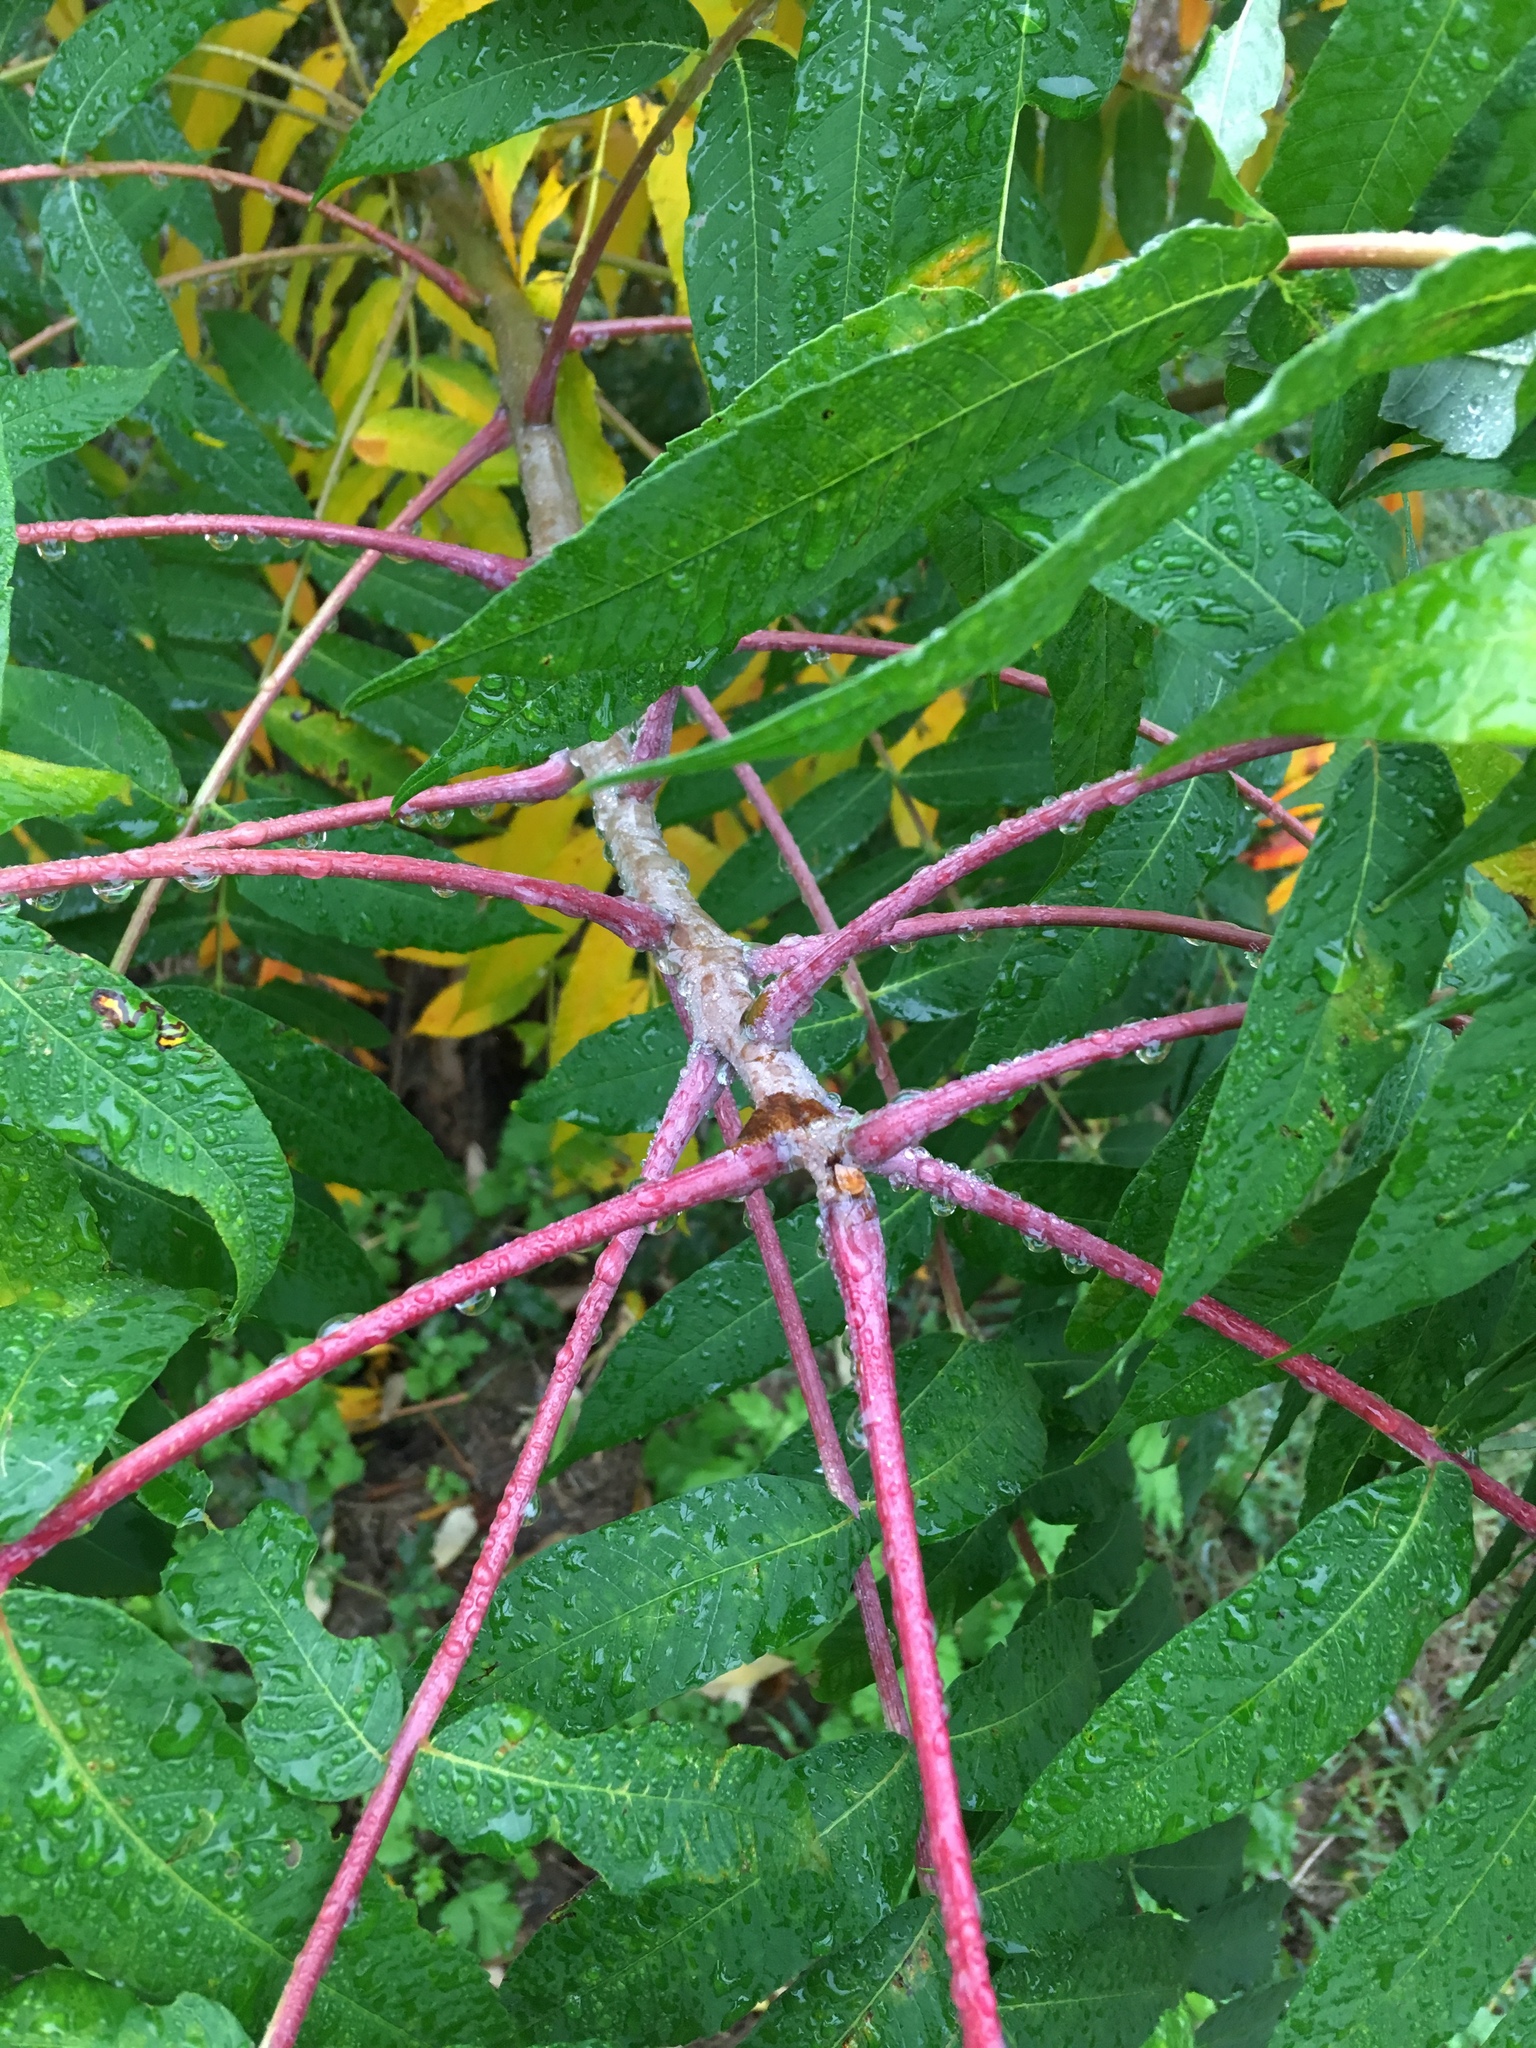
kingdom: Plantae
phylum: Tracheophyta
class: Magnoliopsida
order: Sapindales
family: Anacardiaceae
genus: Rhus
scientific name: Rhus glabra
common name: Scarlet sumac
